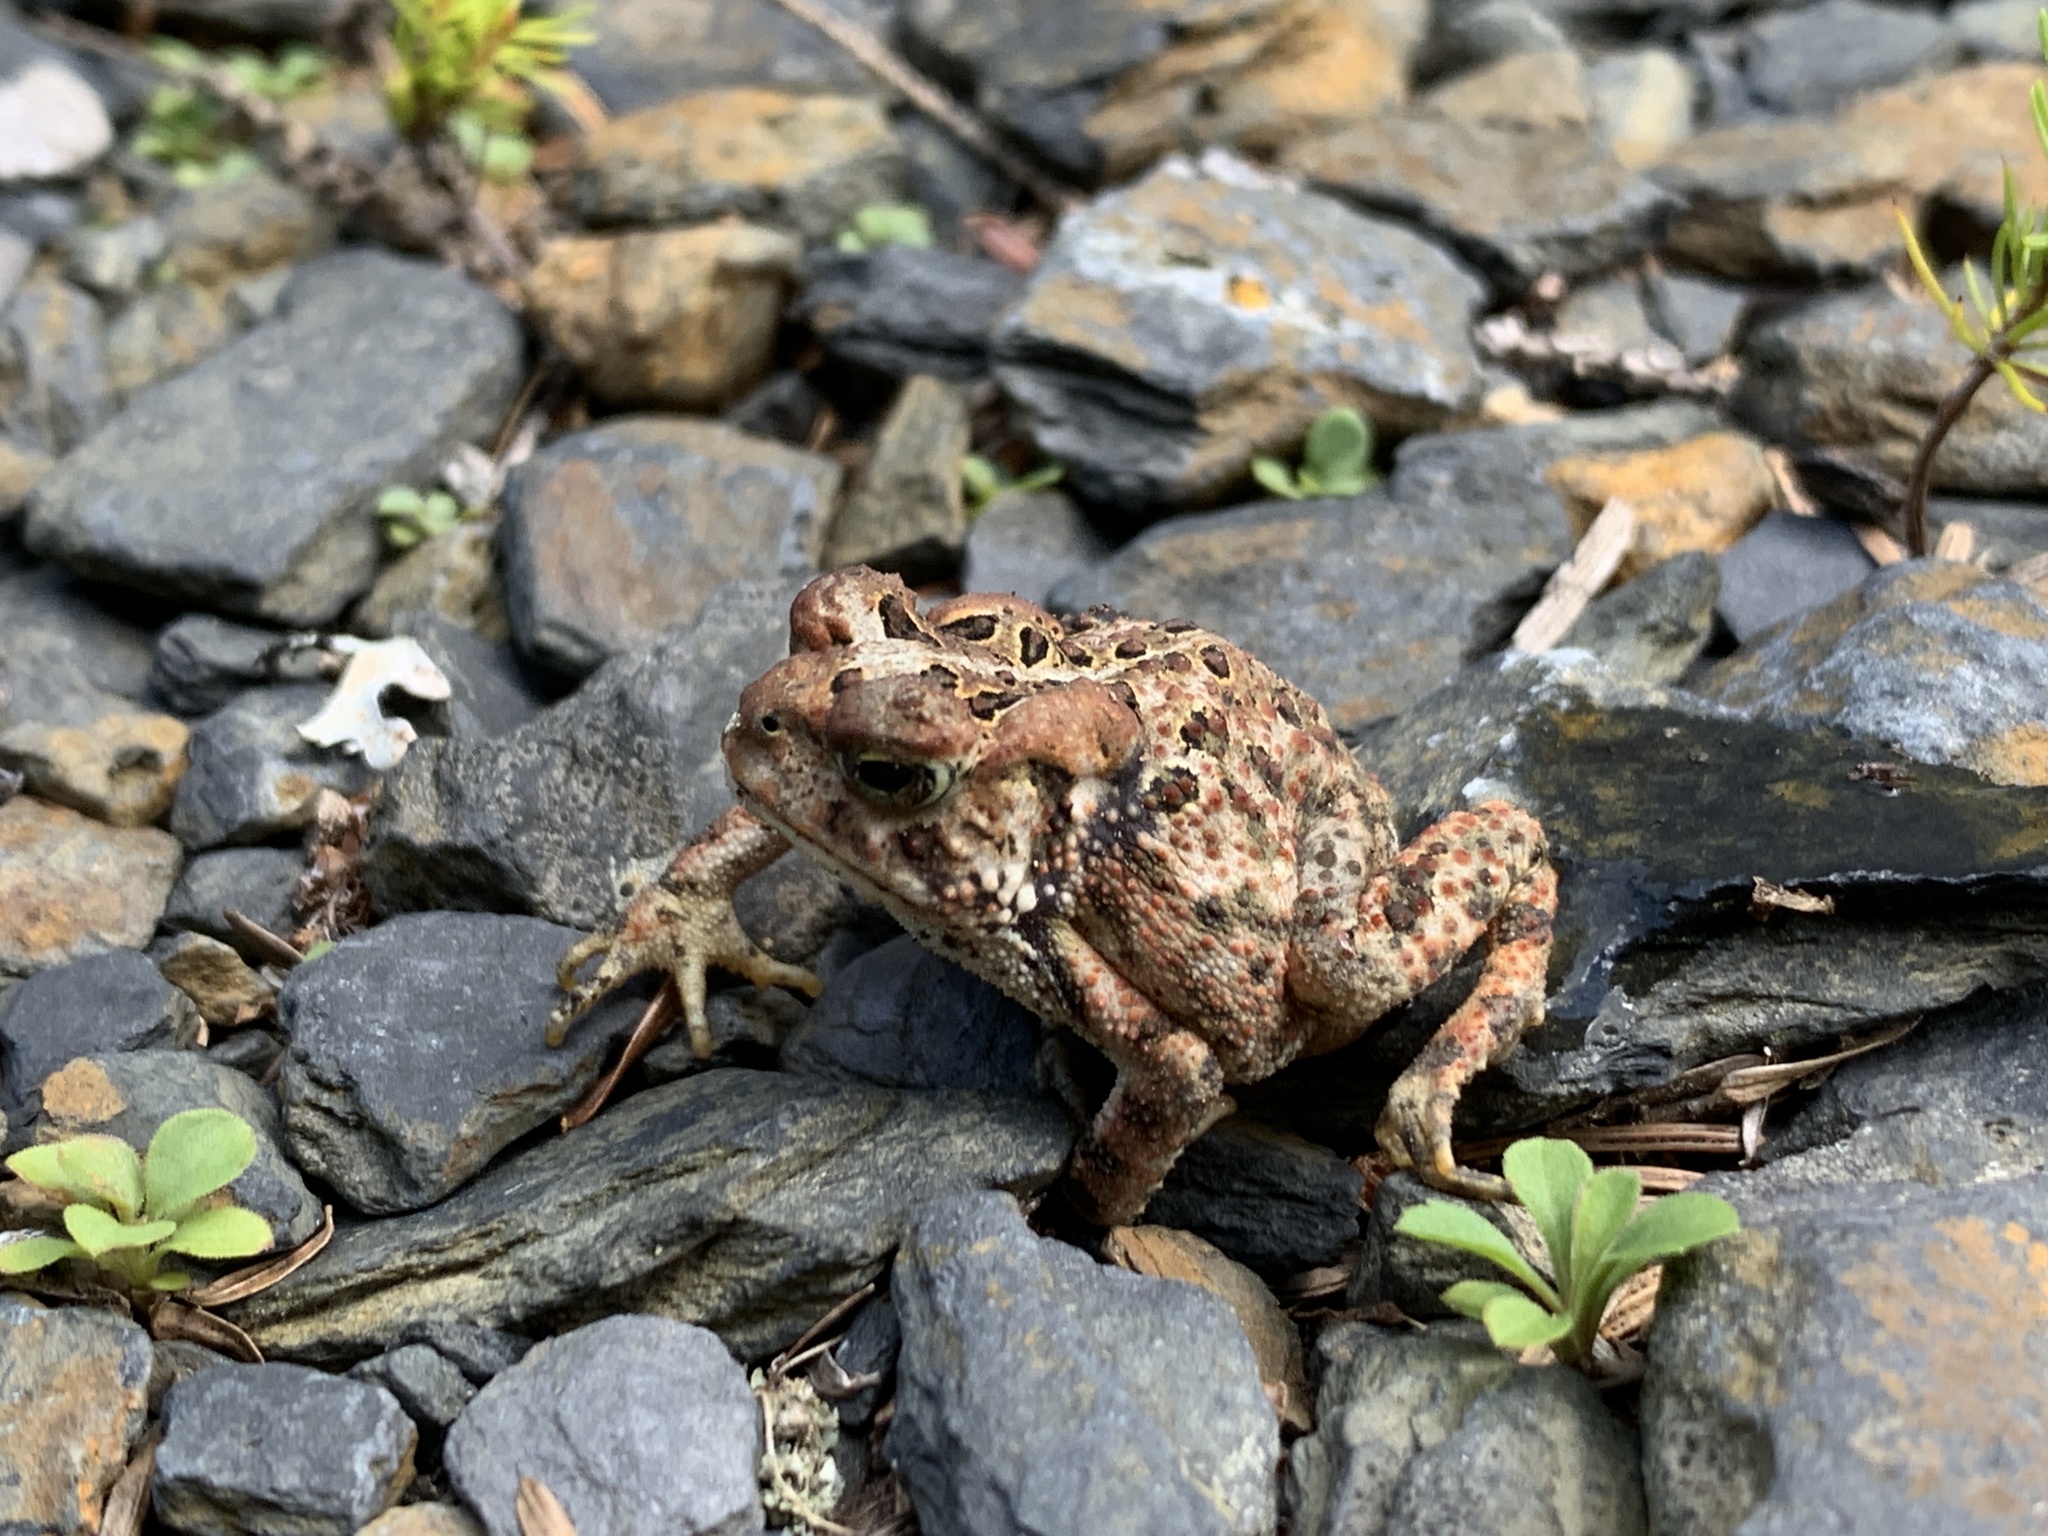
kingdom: Animalia
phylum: Chordata
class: Amphibia
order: Anura
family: Bufonidae
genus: Anaxyrus
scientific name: Anaxyrus americanus
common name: American toad
